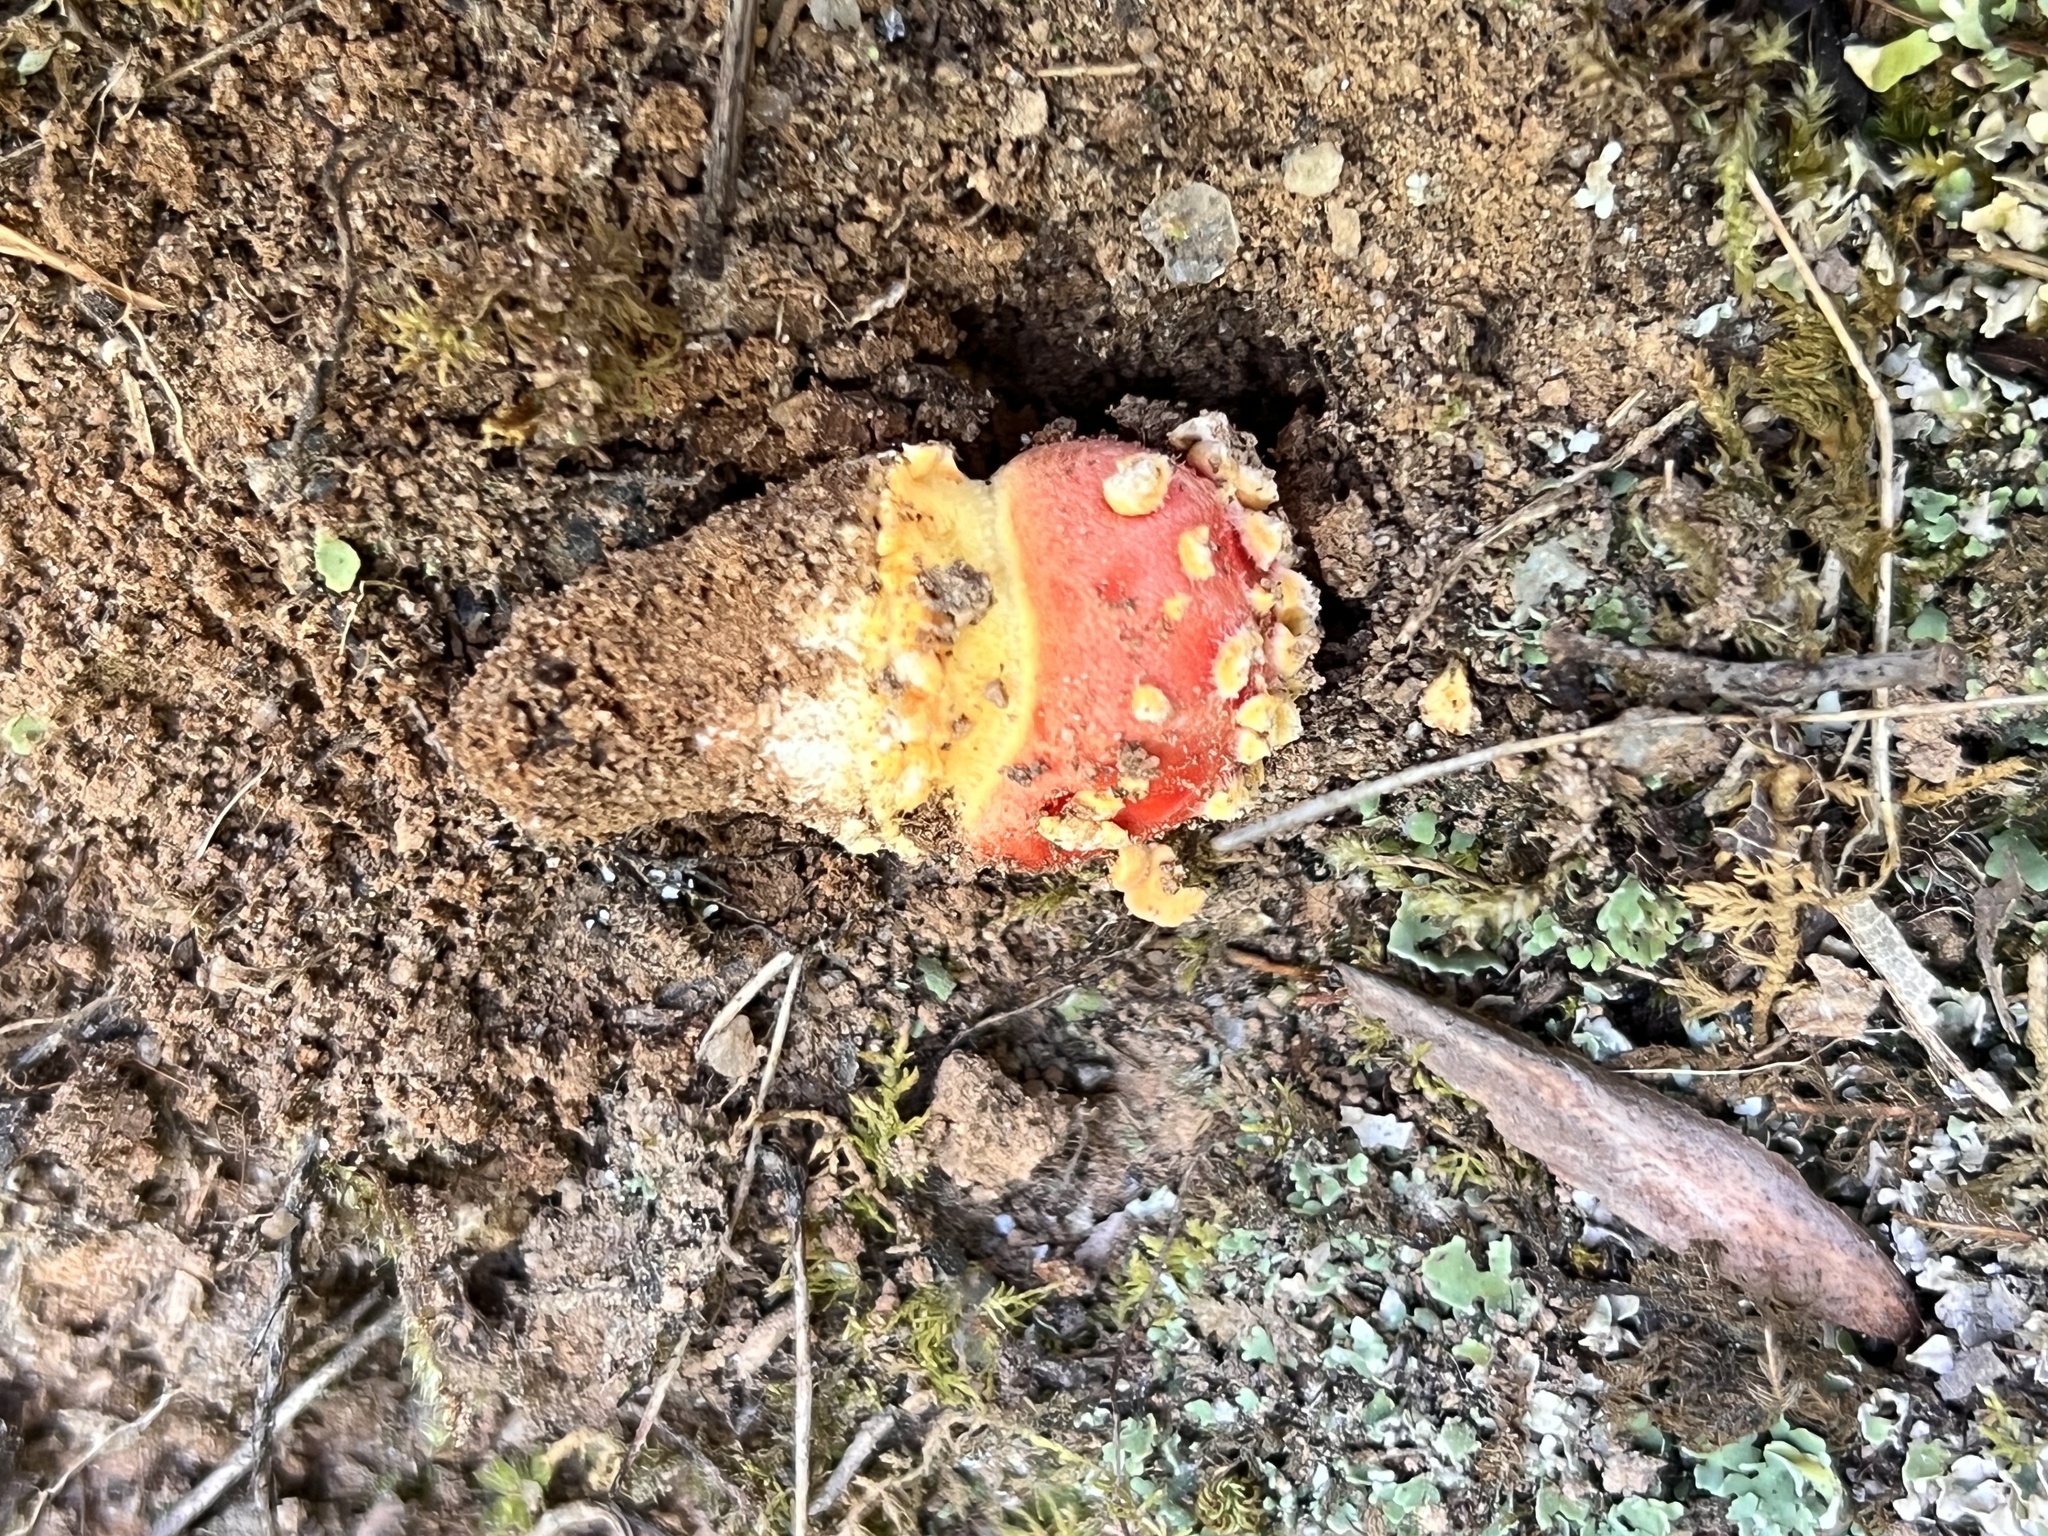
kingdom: Fungi
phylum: Basidiomycota
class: Agaricomycetes
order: Agaricales
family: Amanitaceae
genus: Amanita
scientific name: Amanita parcivolvata
